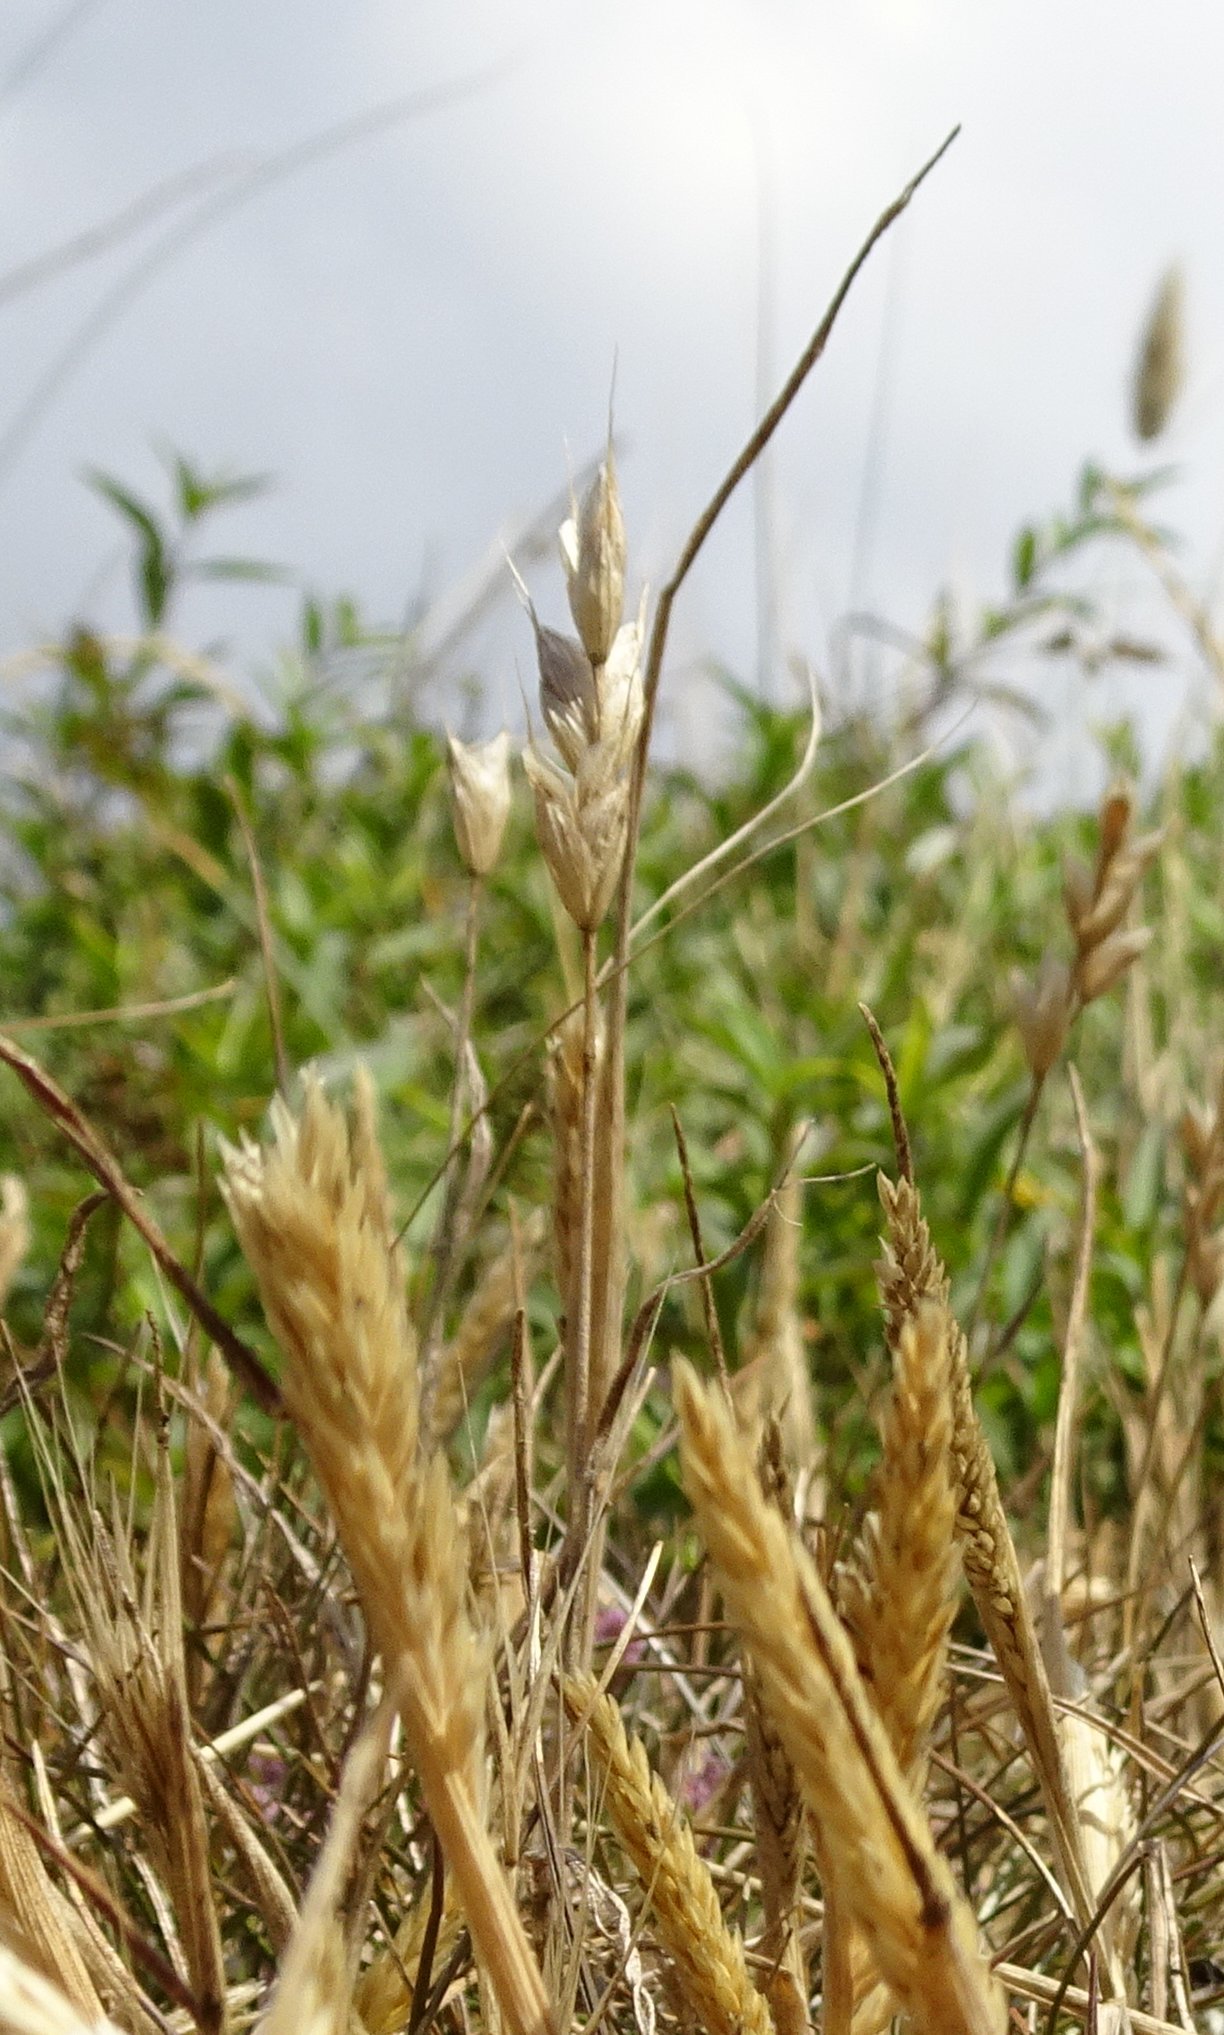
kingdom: Plantae
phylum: Tracheophyta
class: Liliopsida
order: Poales
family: Poaceae
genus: Aira
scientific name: Aira praecox
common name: Early hair-grass
